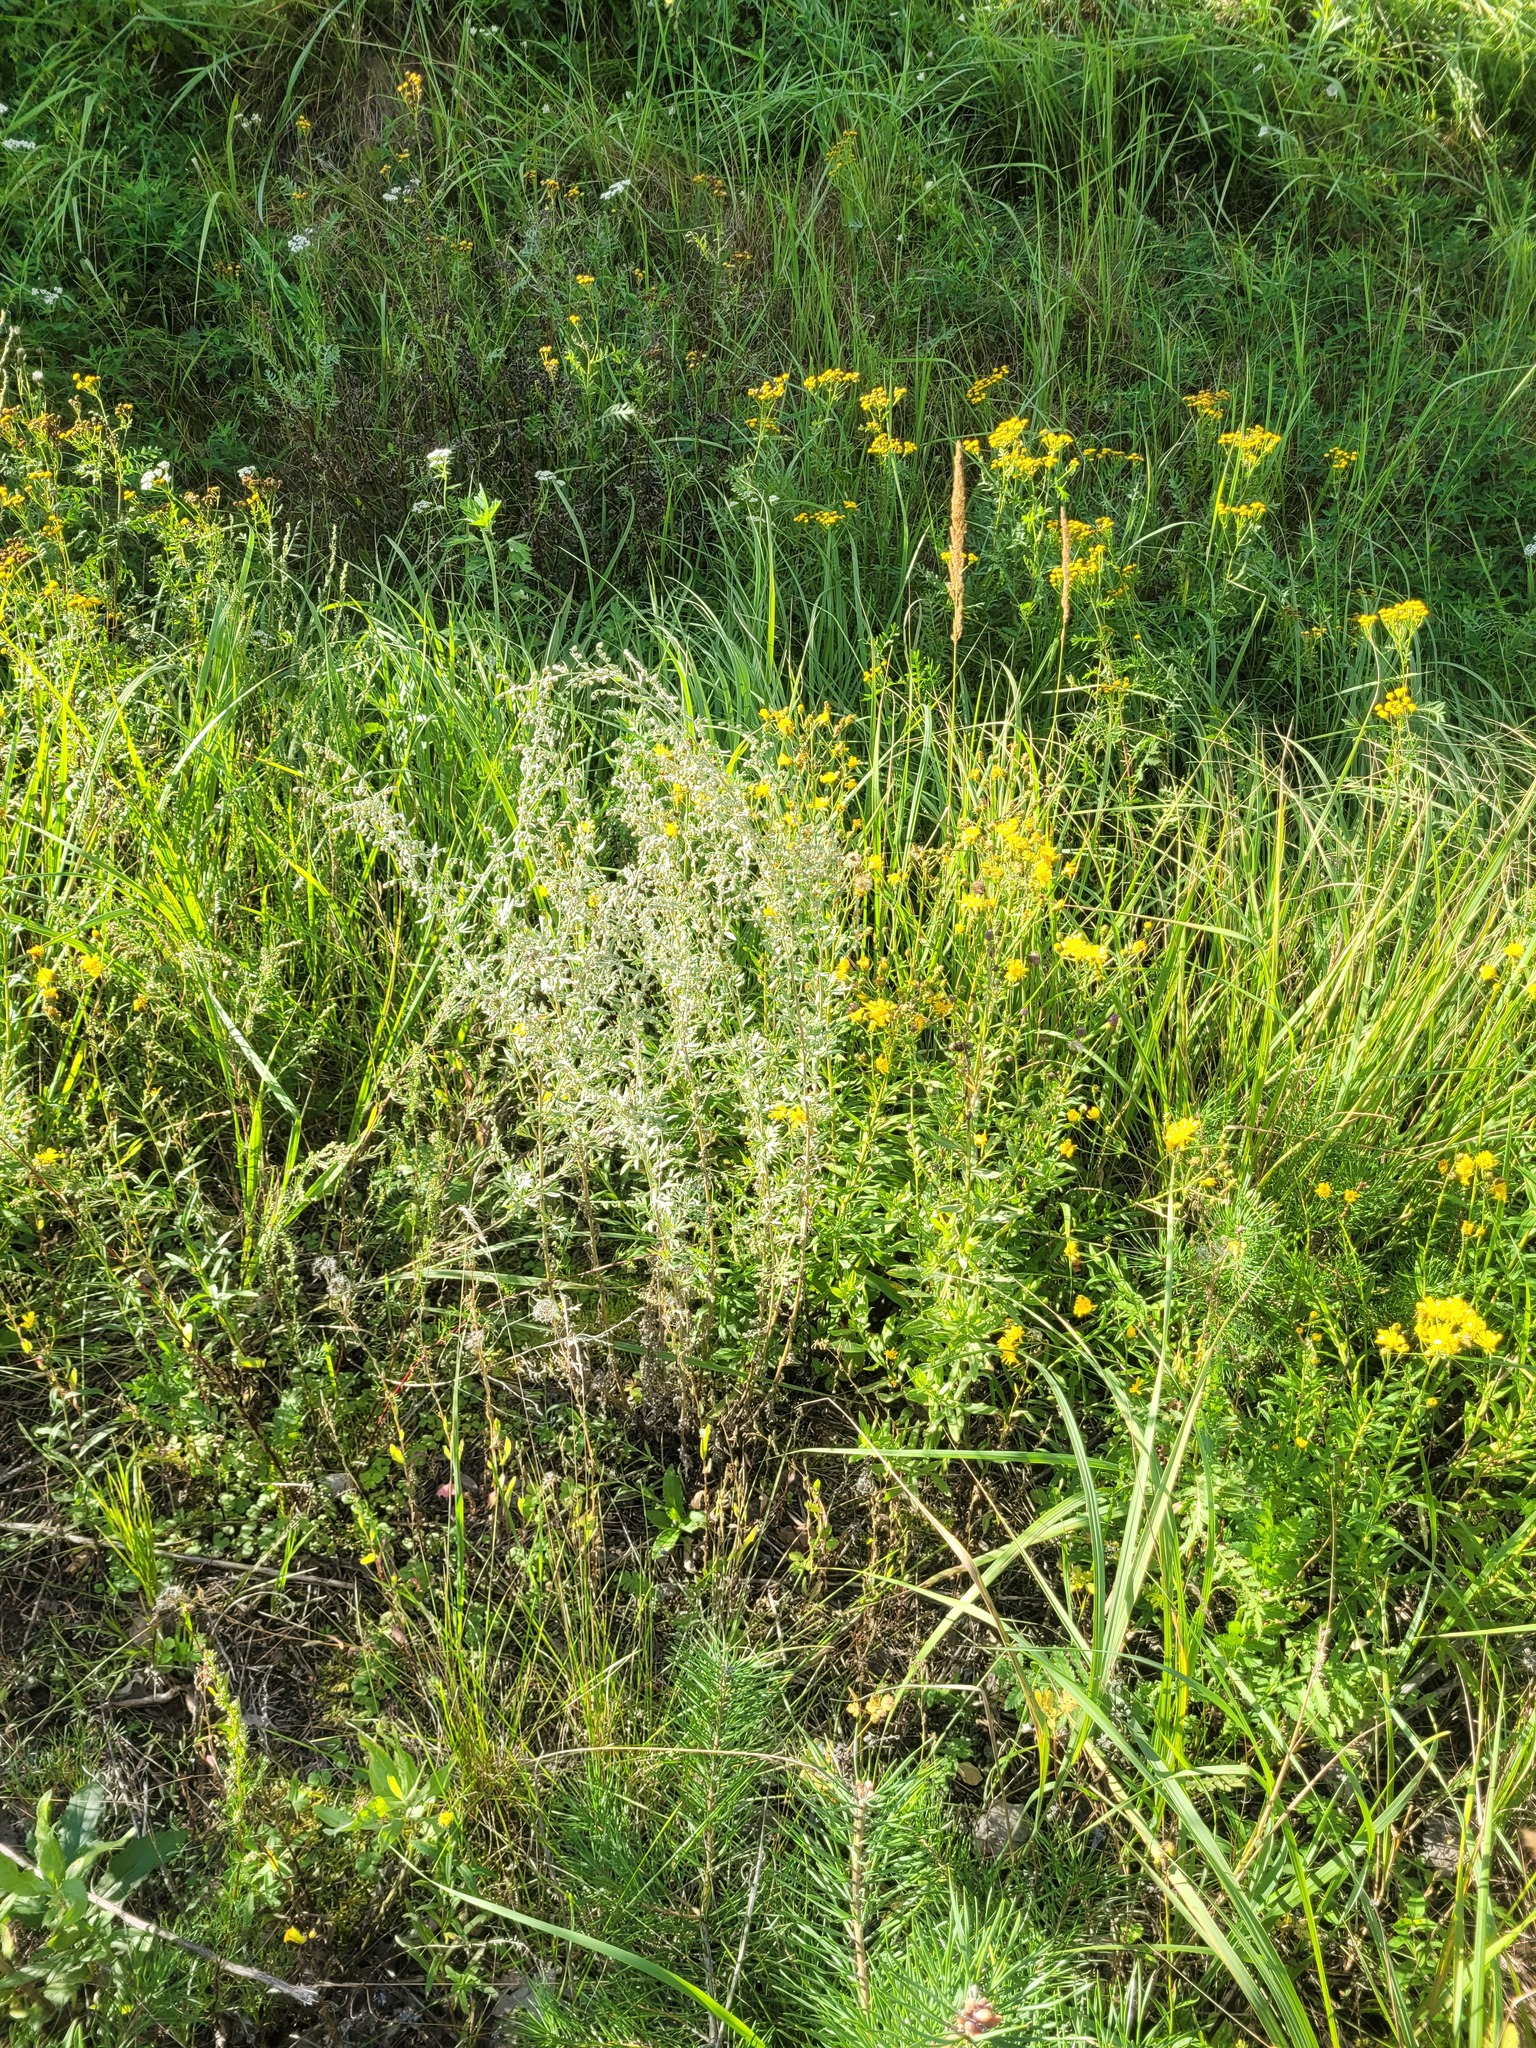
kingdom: Plantae
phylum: Tracheophyta
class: Magnoliopsida
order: Asterales
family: Asteraceae
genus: Artemisia
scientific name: Artemisia absinthium
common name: Wormwood
